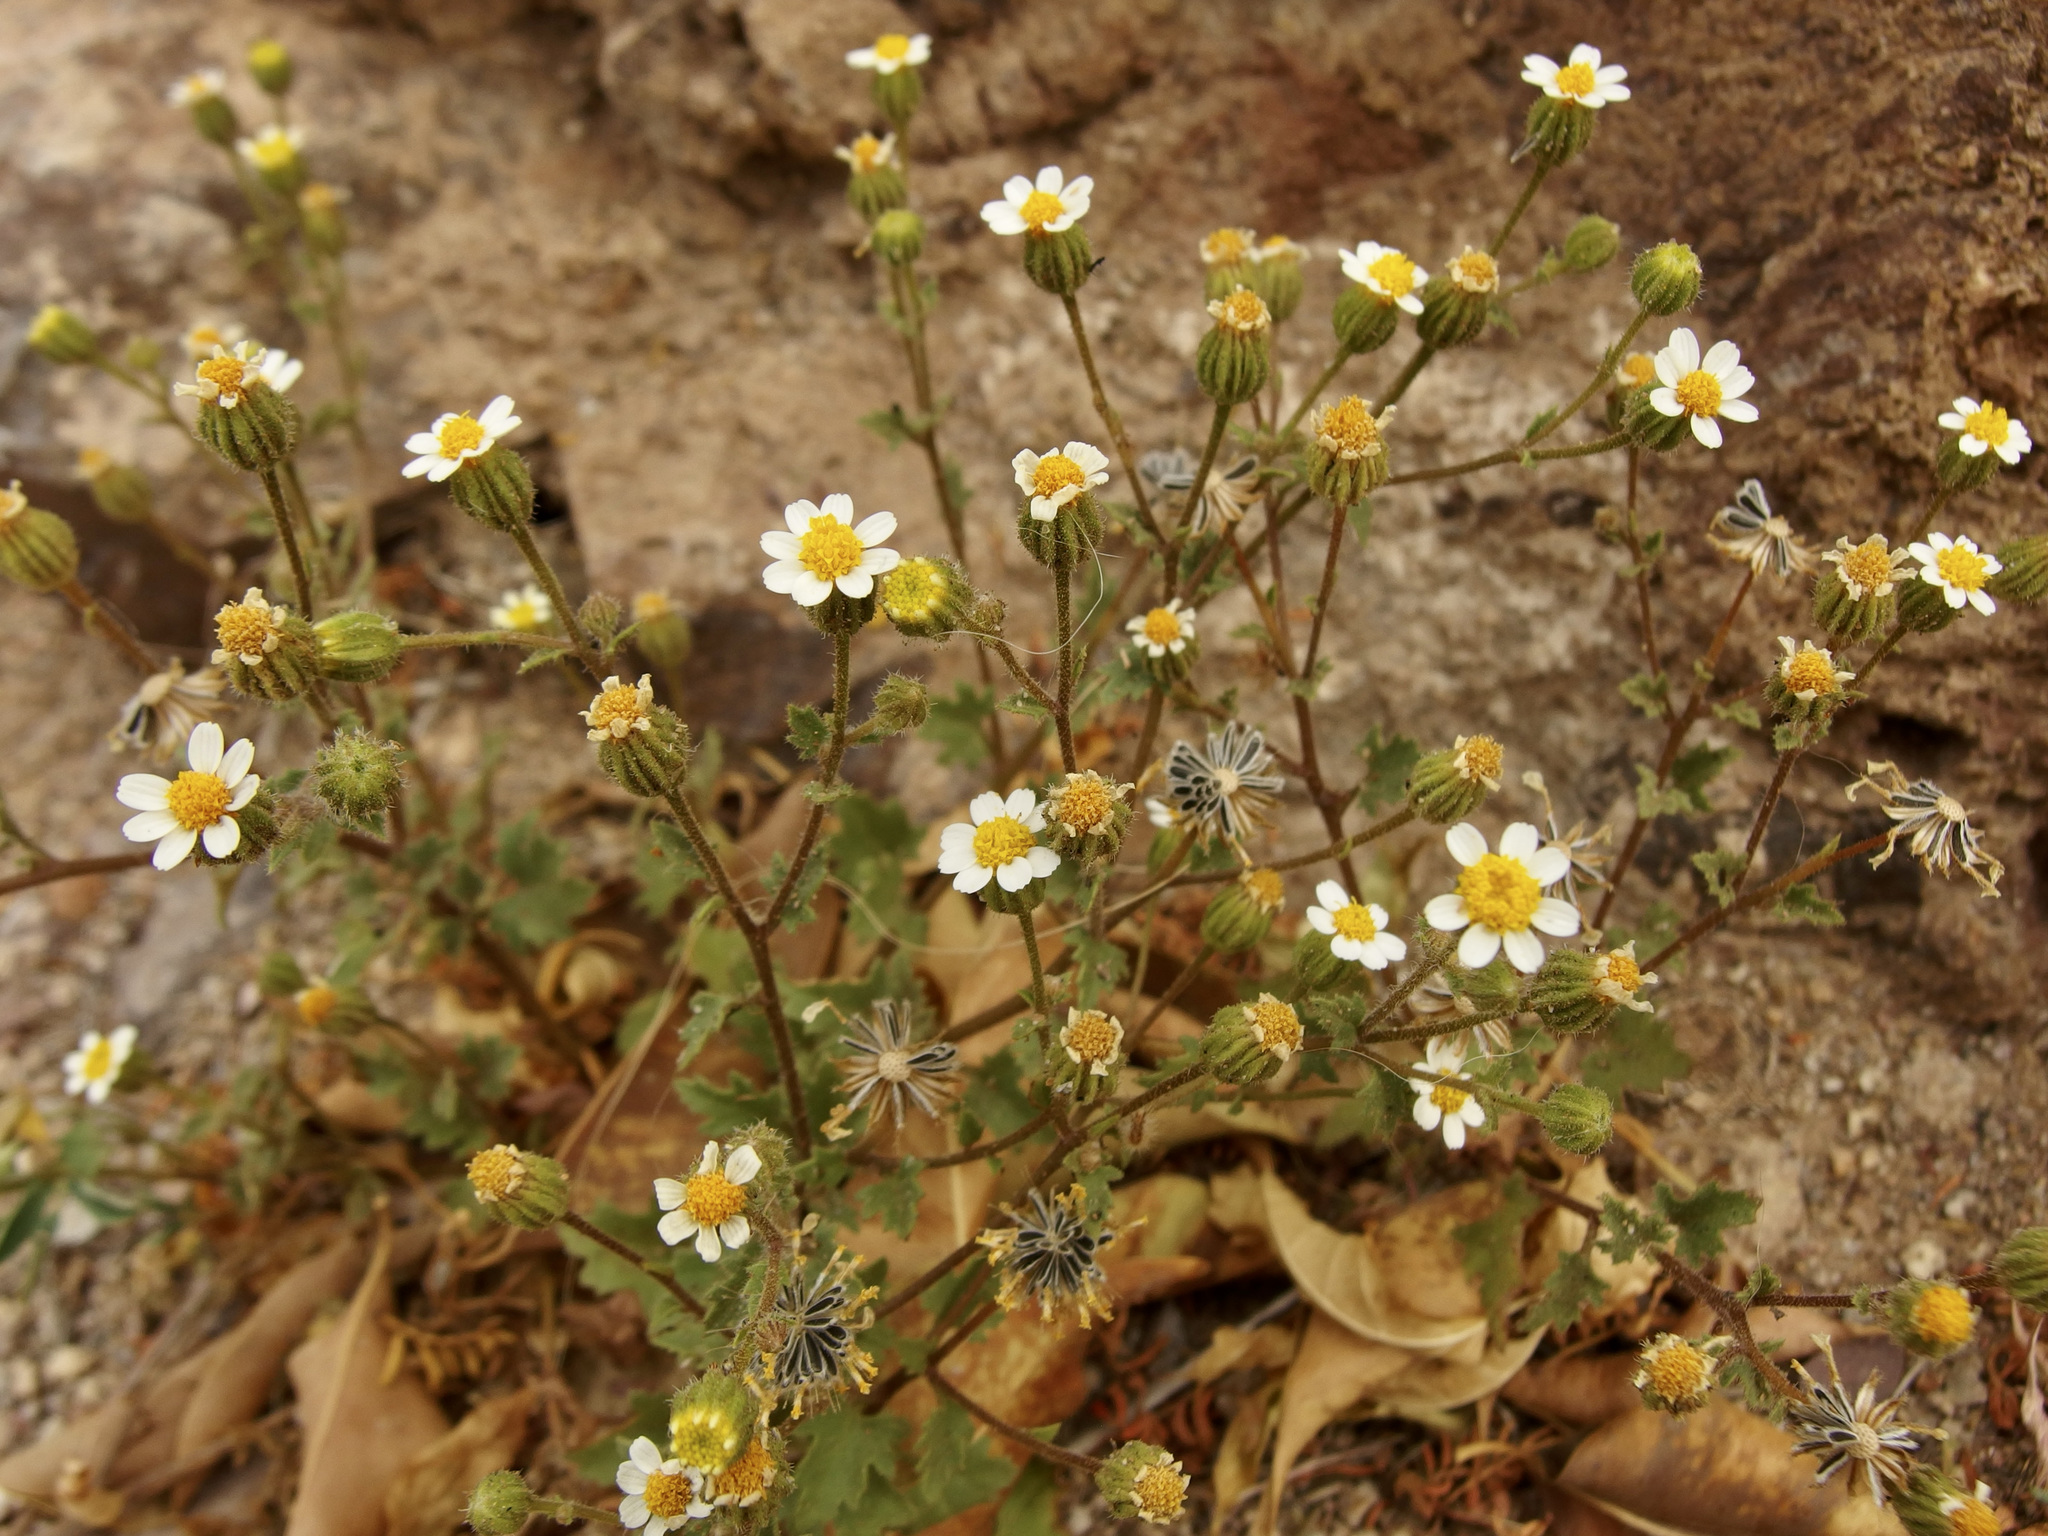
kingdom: Plantae
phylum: Tracheophyta
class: Magnoliopsida
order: Asterales
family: Asteraceae
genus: Laphamia
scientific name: Laphamia emoryi
